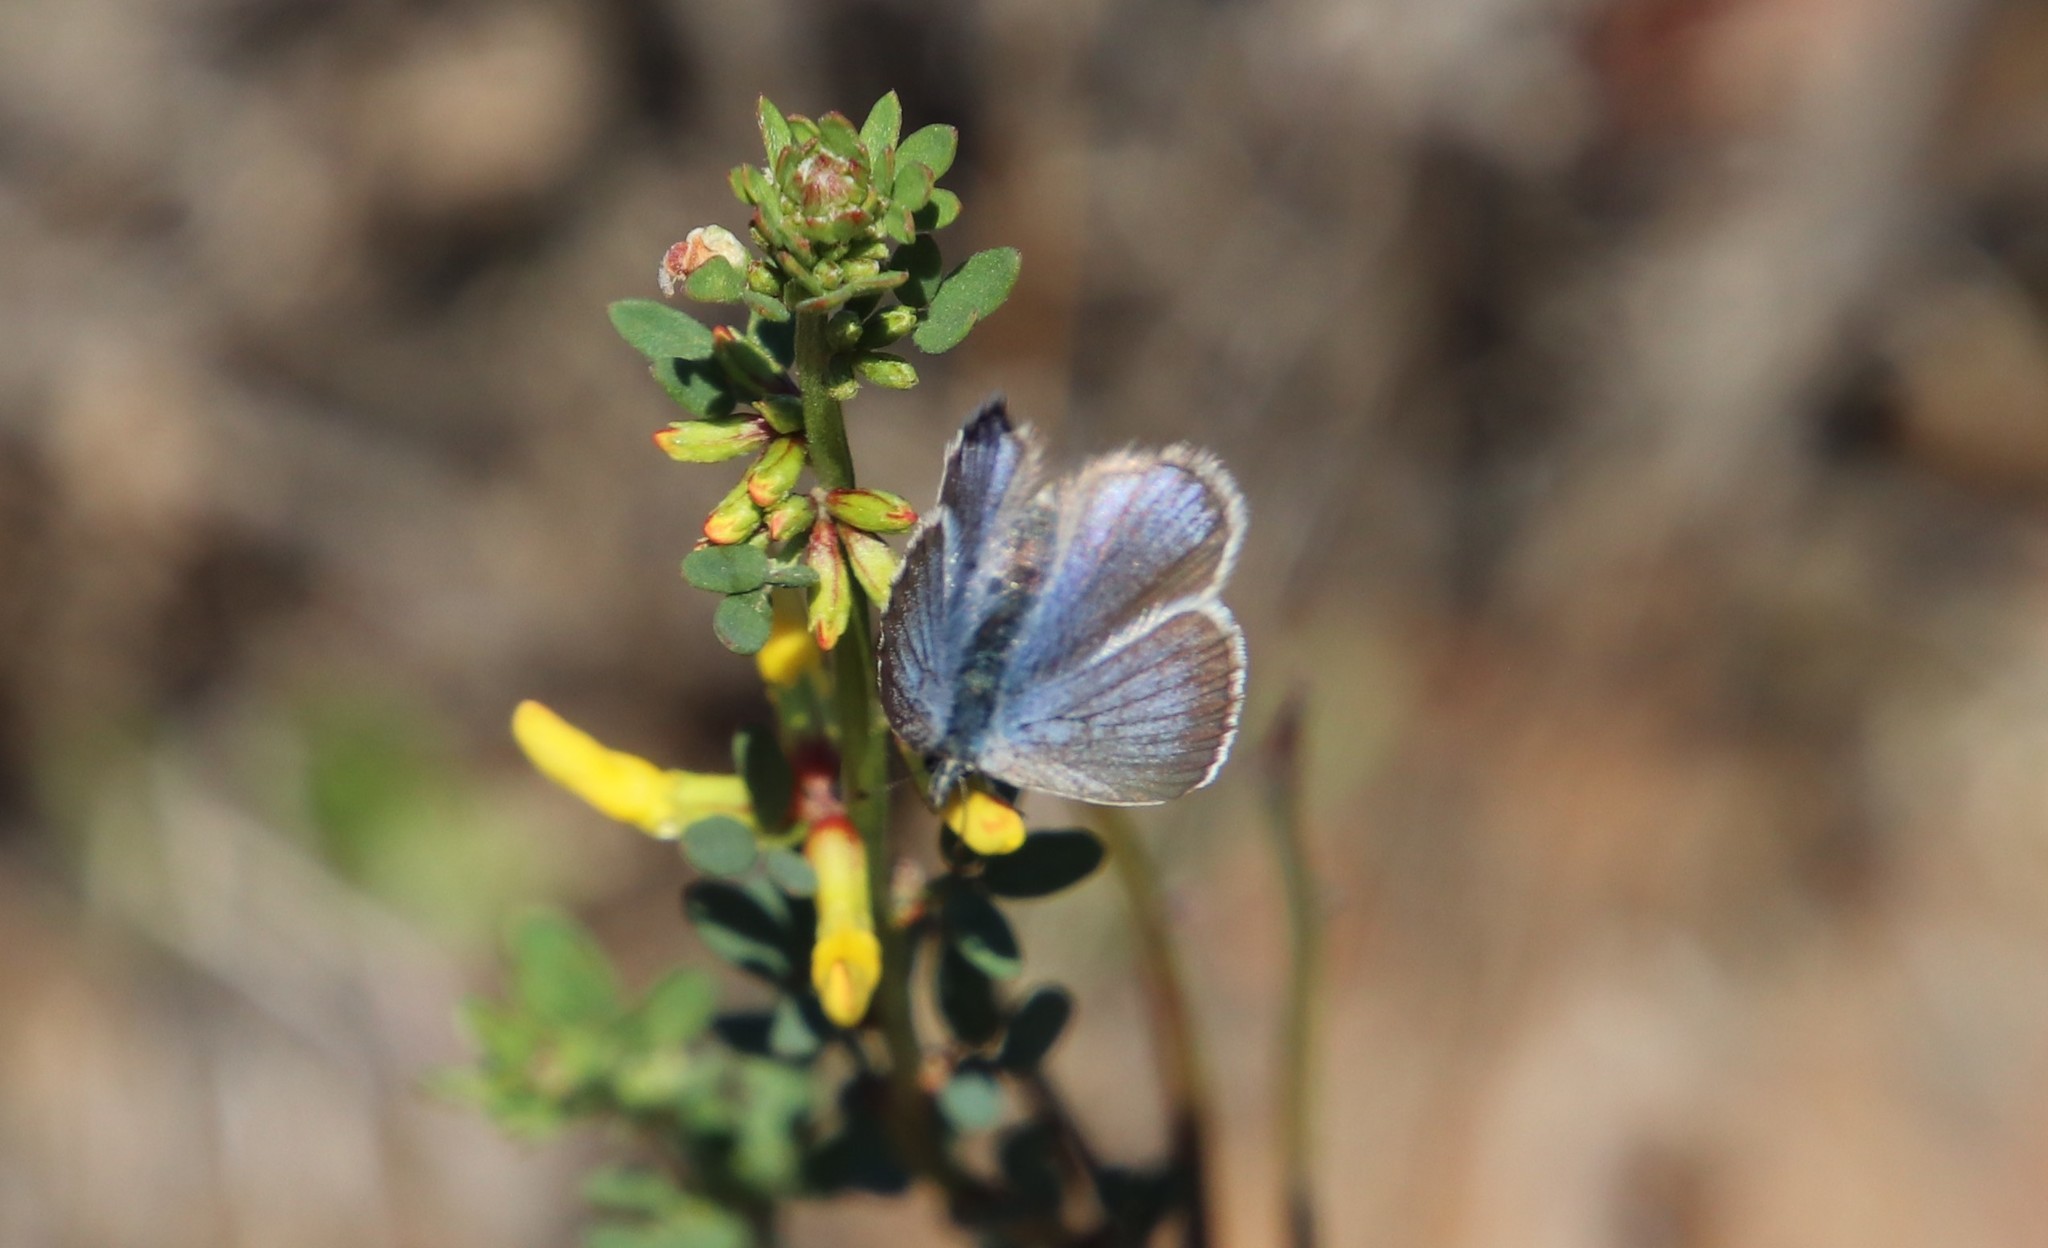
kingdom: Animalia
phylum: Arthropoda
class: Insecta
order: Lepidoptera
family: Lycaenidae
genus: Glaucopsyche
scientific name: Glaucopsyche lygdamus
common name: Silvery blue
